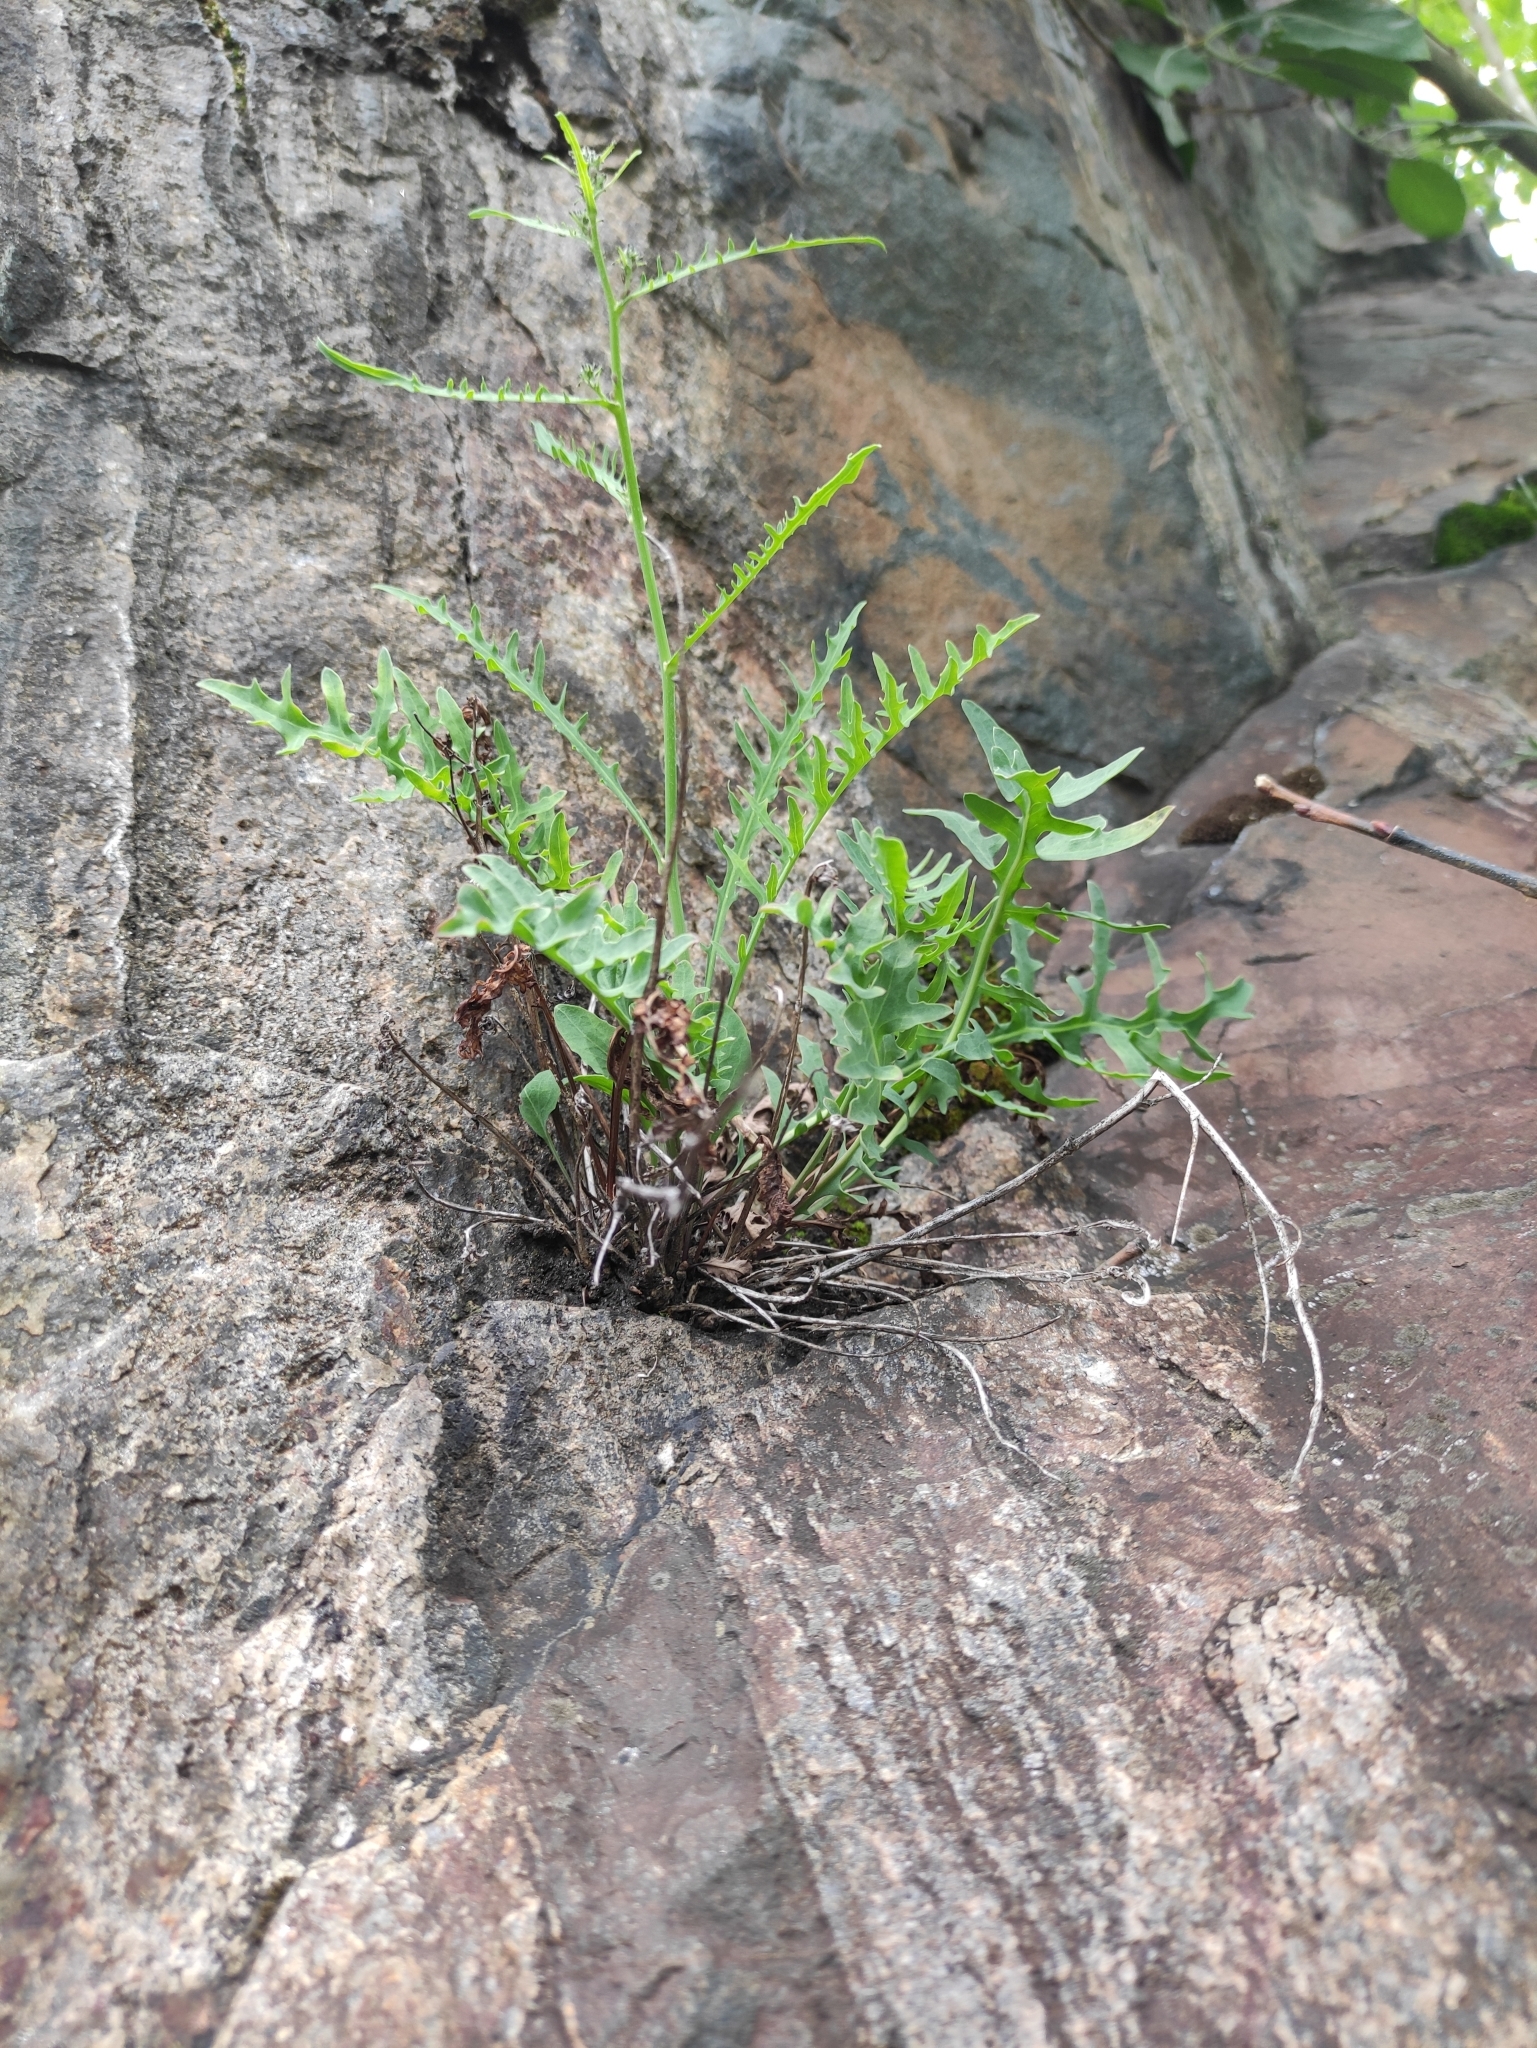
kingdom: Plantae
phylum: Tracheophyta
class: Magnoliopsida
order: Asterales
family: Asteraceae
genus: Crepidiastrum
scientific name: Crepidiastrum tenuifolium
